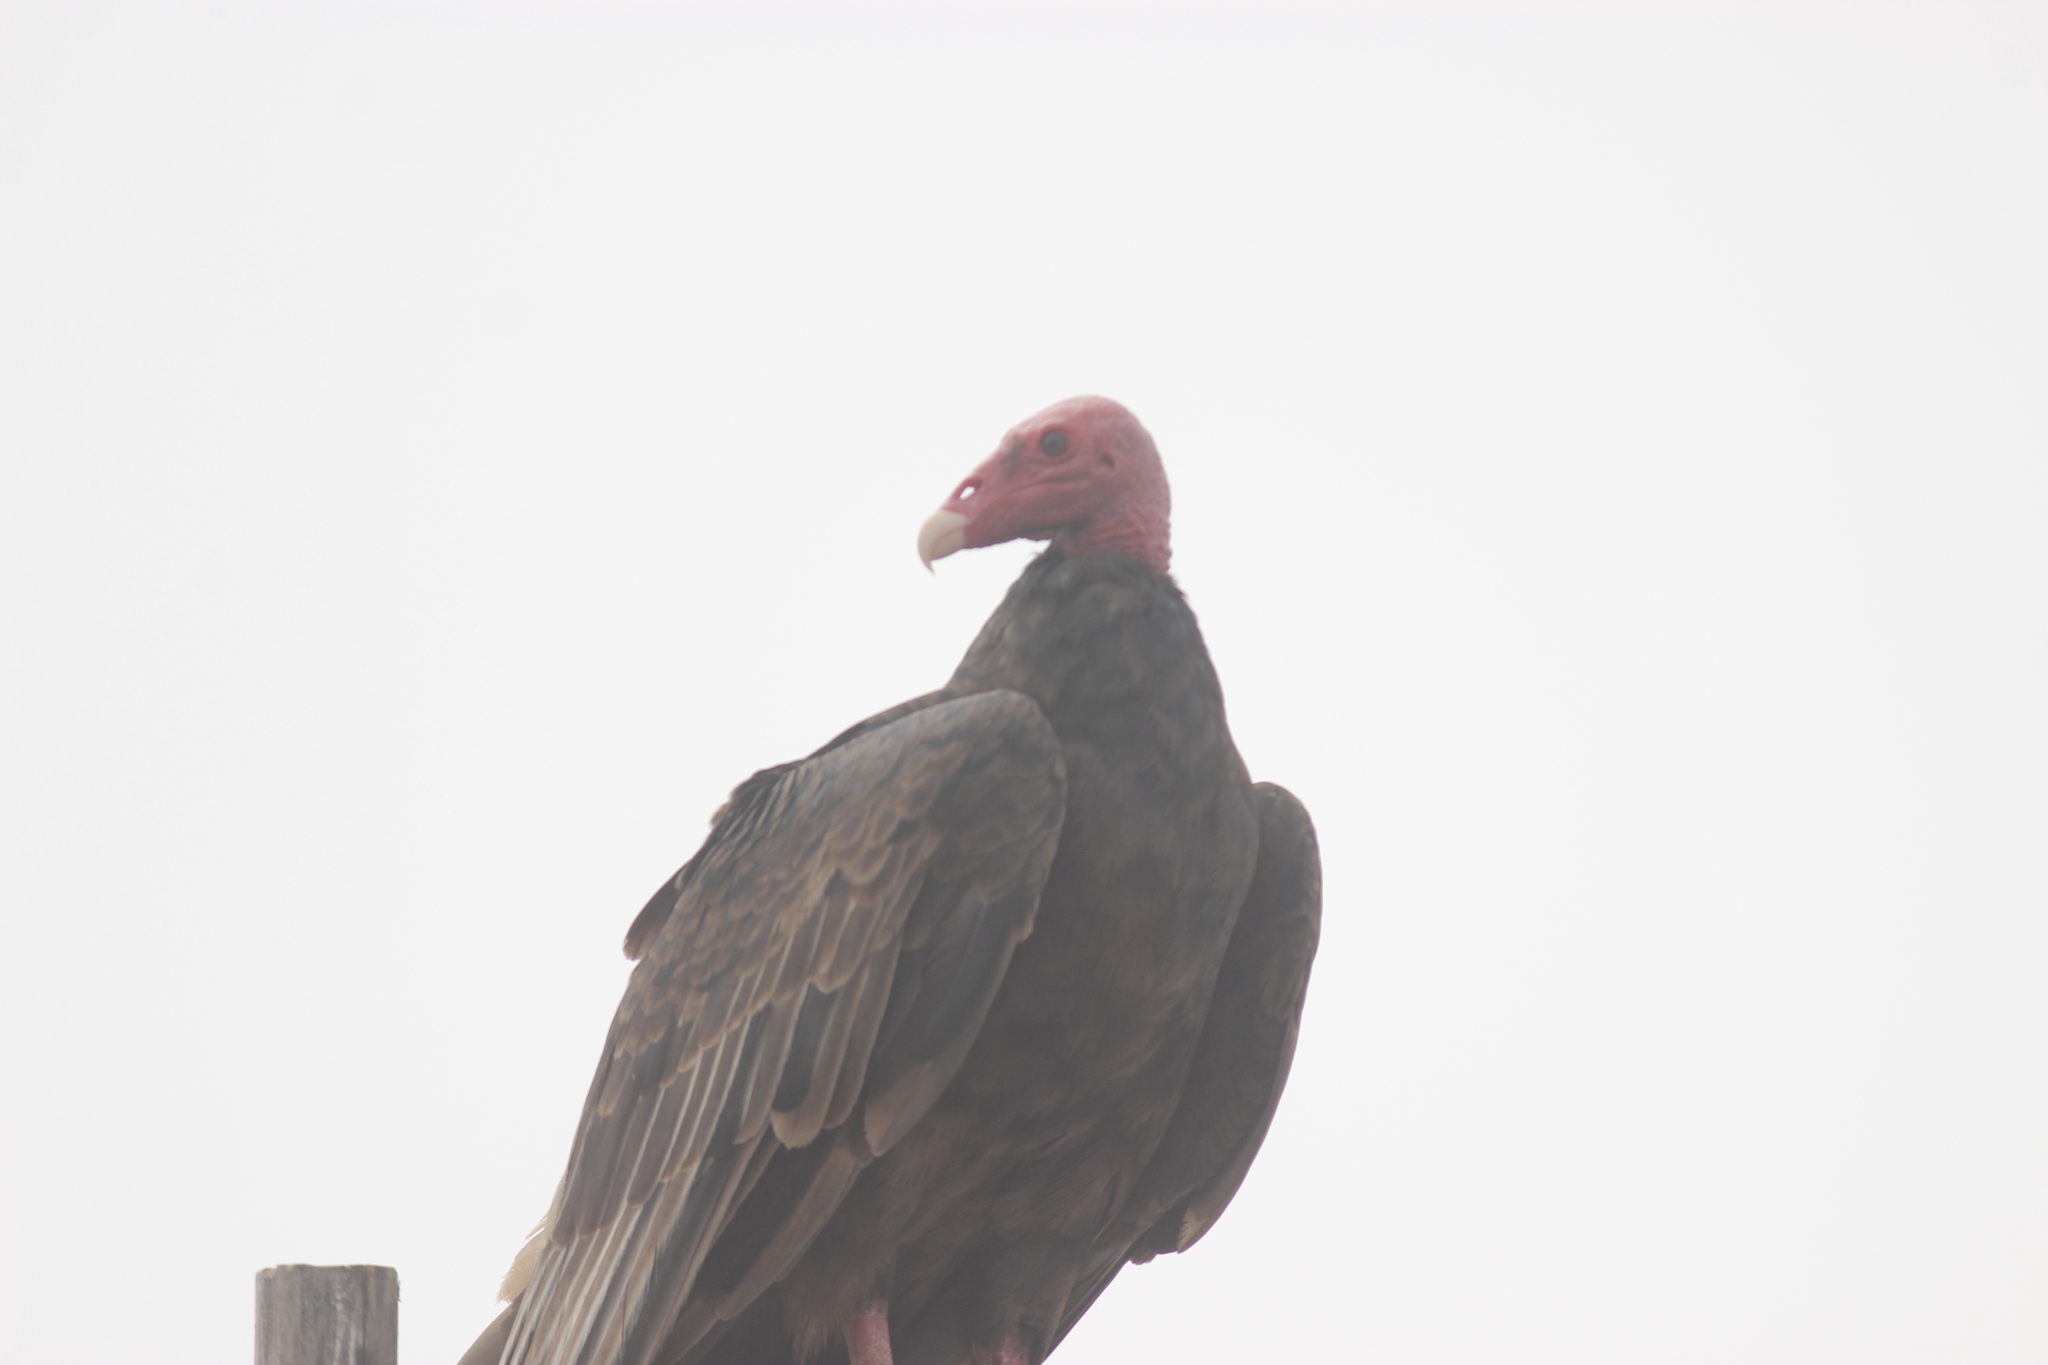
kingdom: Animalia
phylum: Chordata
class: Aves
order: Accipitriformes
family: Cathartidae
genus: Cathartes
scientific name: Cathartes aura
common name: Turkey vulture
